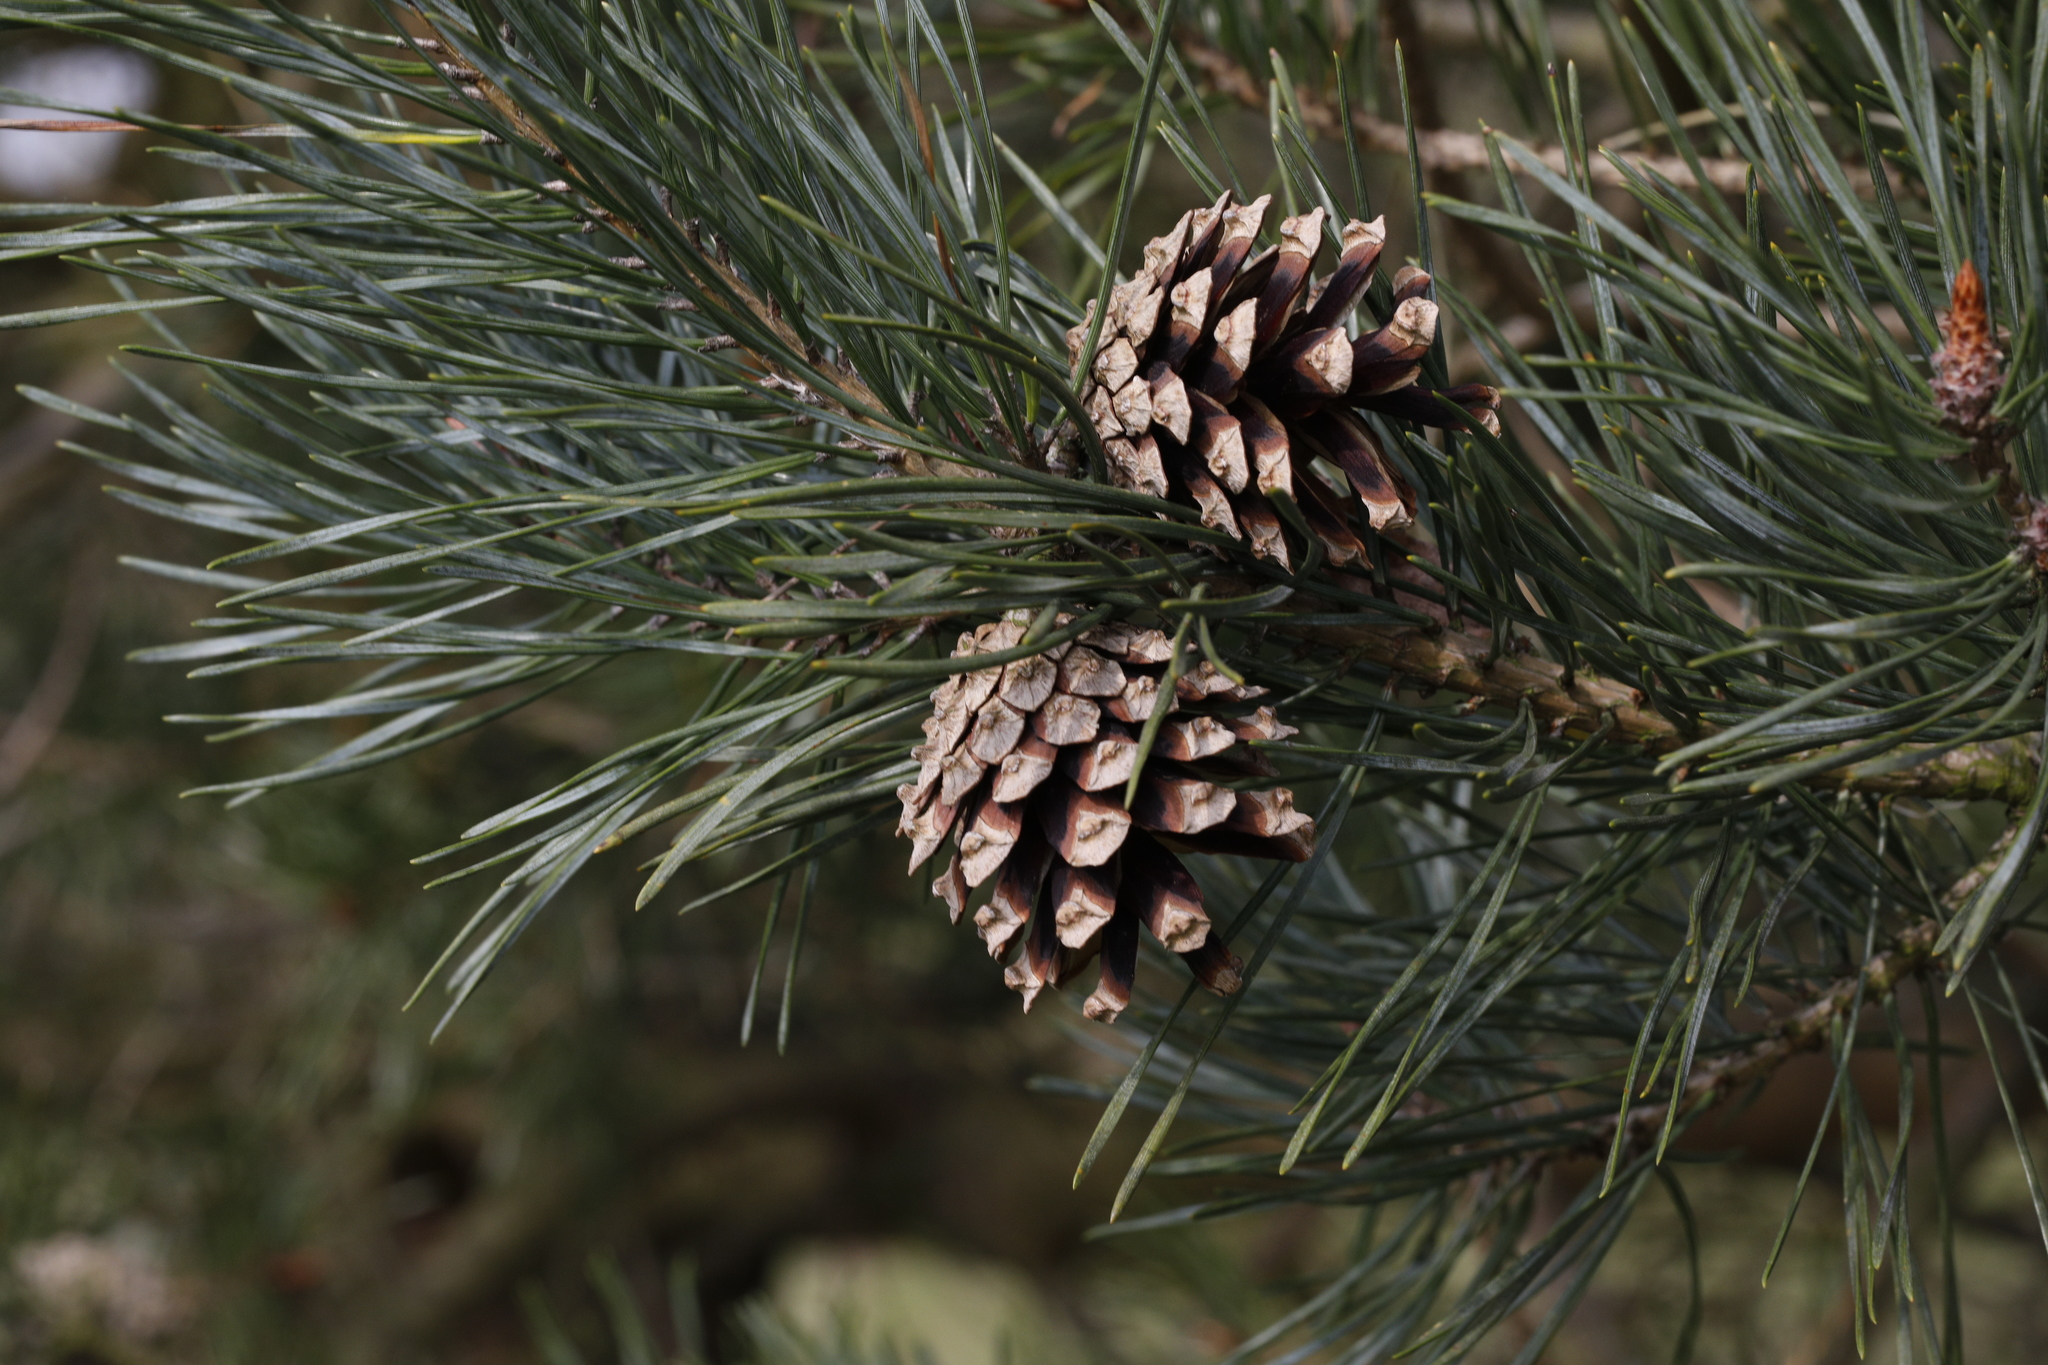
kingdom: Plantae
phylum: Tracheophyta
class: Pinopsida
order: Pinales
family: Pinaceae
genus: Pinus
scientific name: Pinus sylvestris
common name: Scots pine
